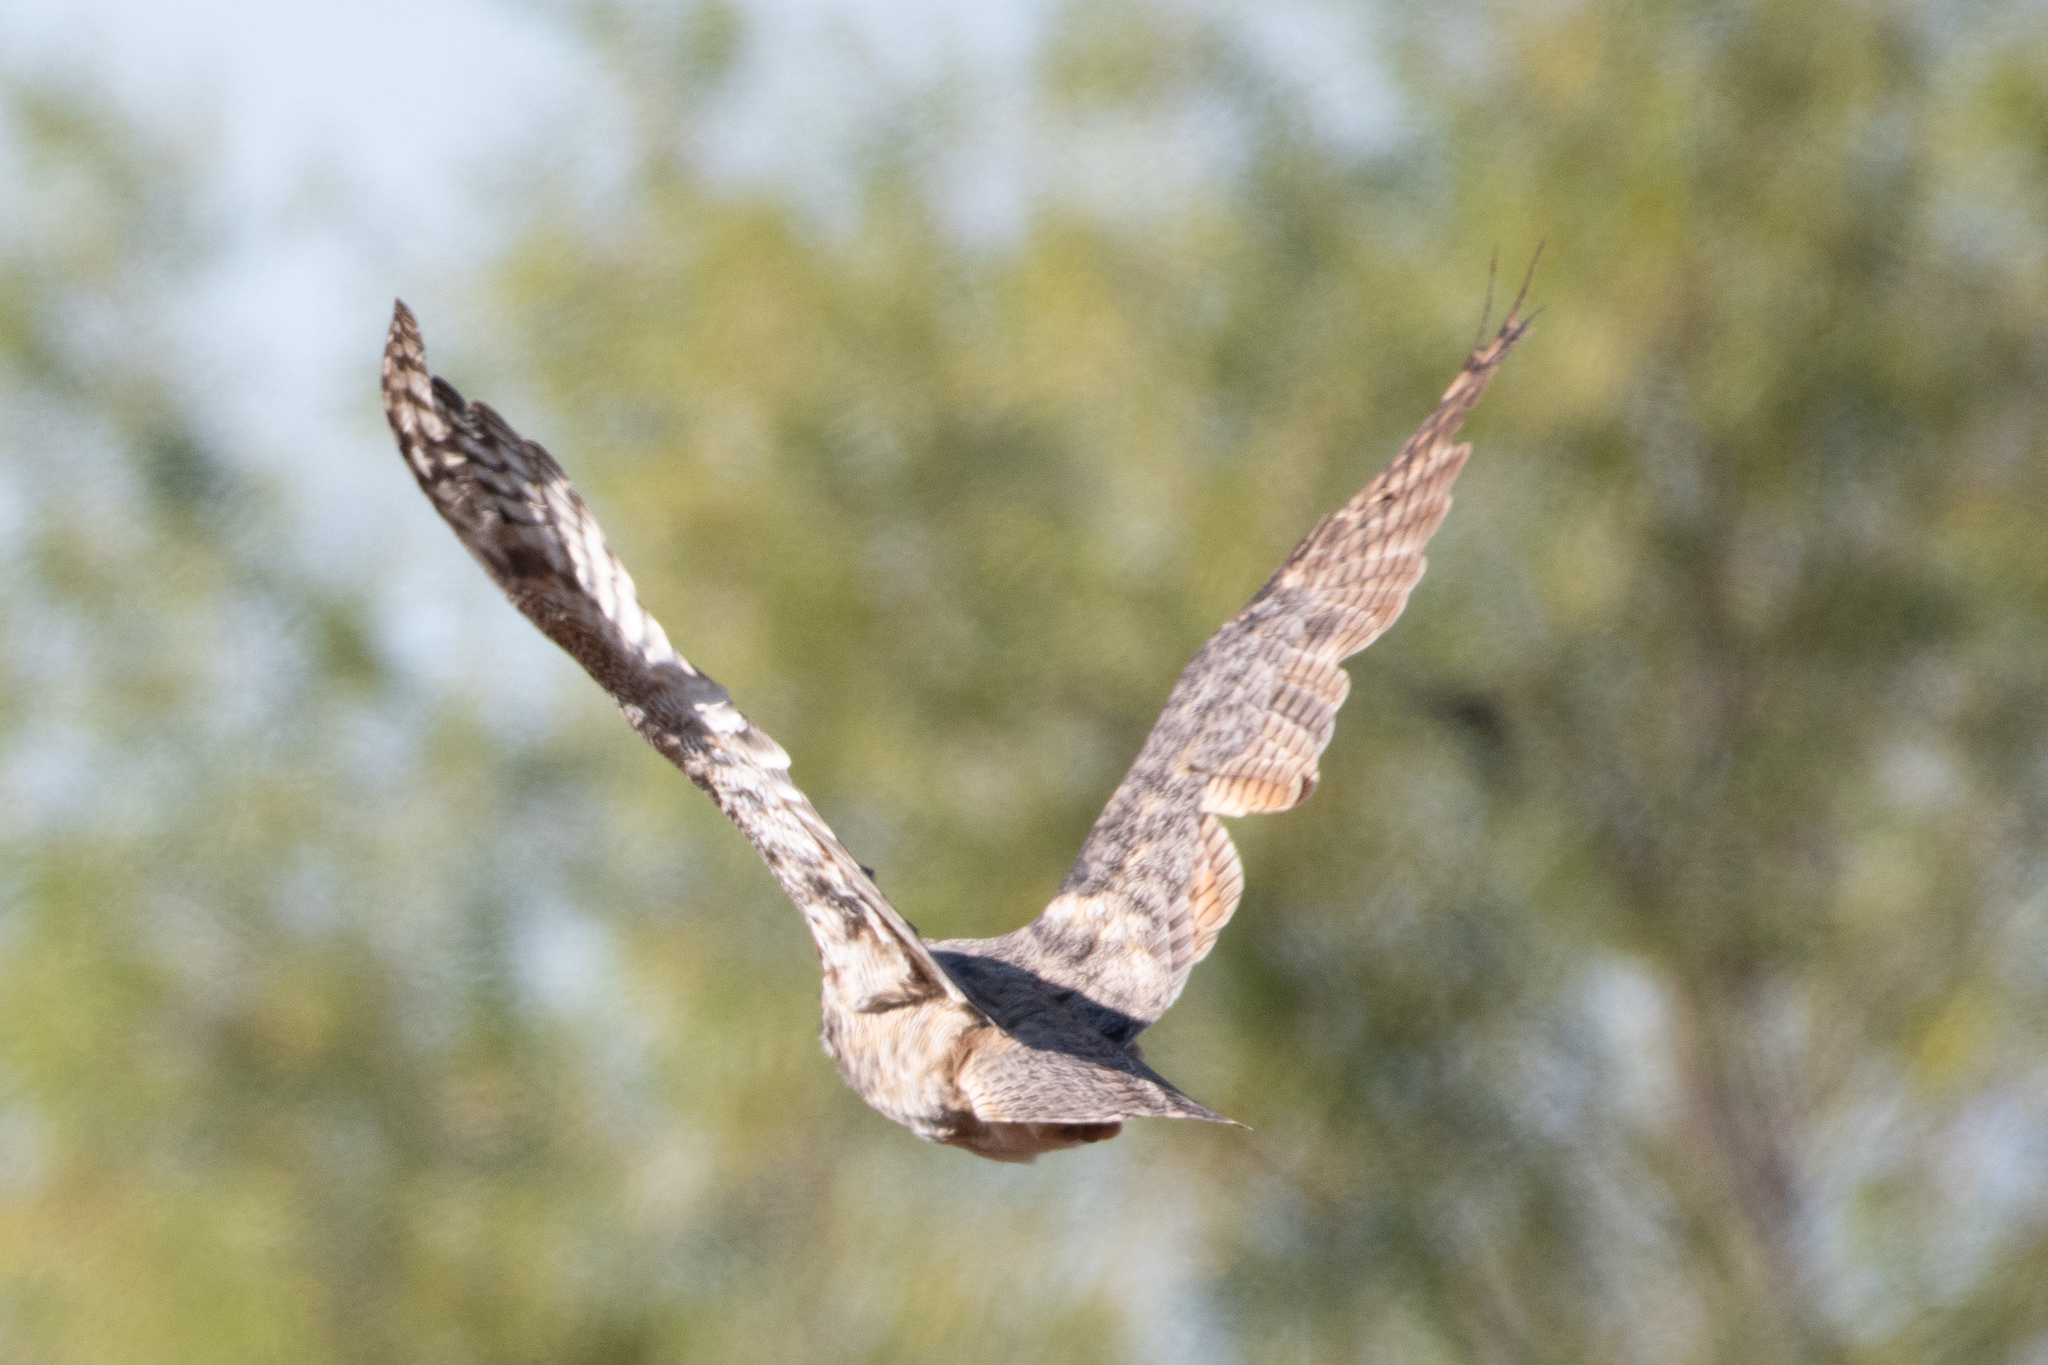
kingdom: Animalia
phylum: Chordata
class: Aves
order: Strigiformes
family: Strigidae
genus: Bubo
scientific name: Bubo virginianus
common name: Great horned owl
